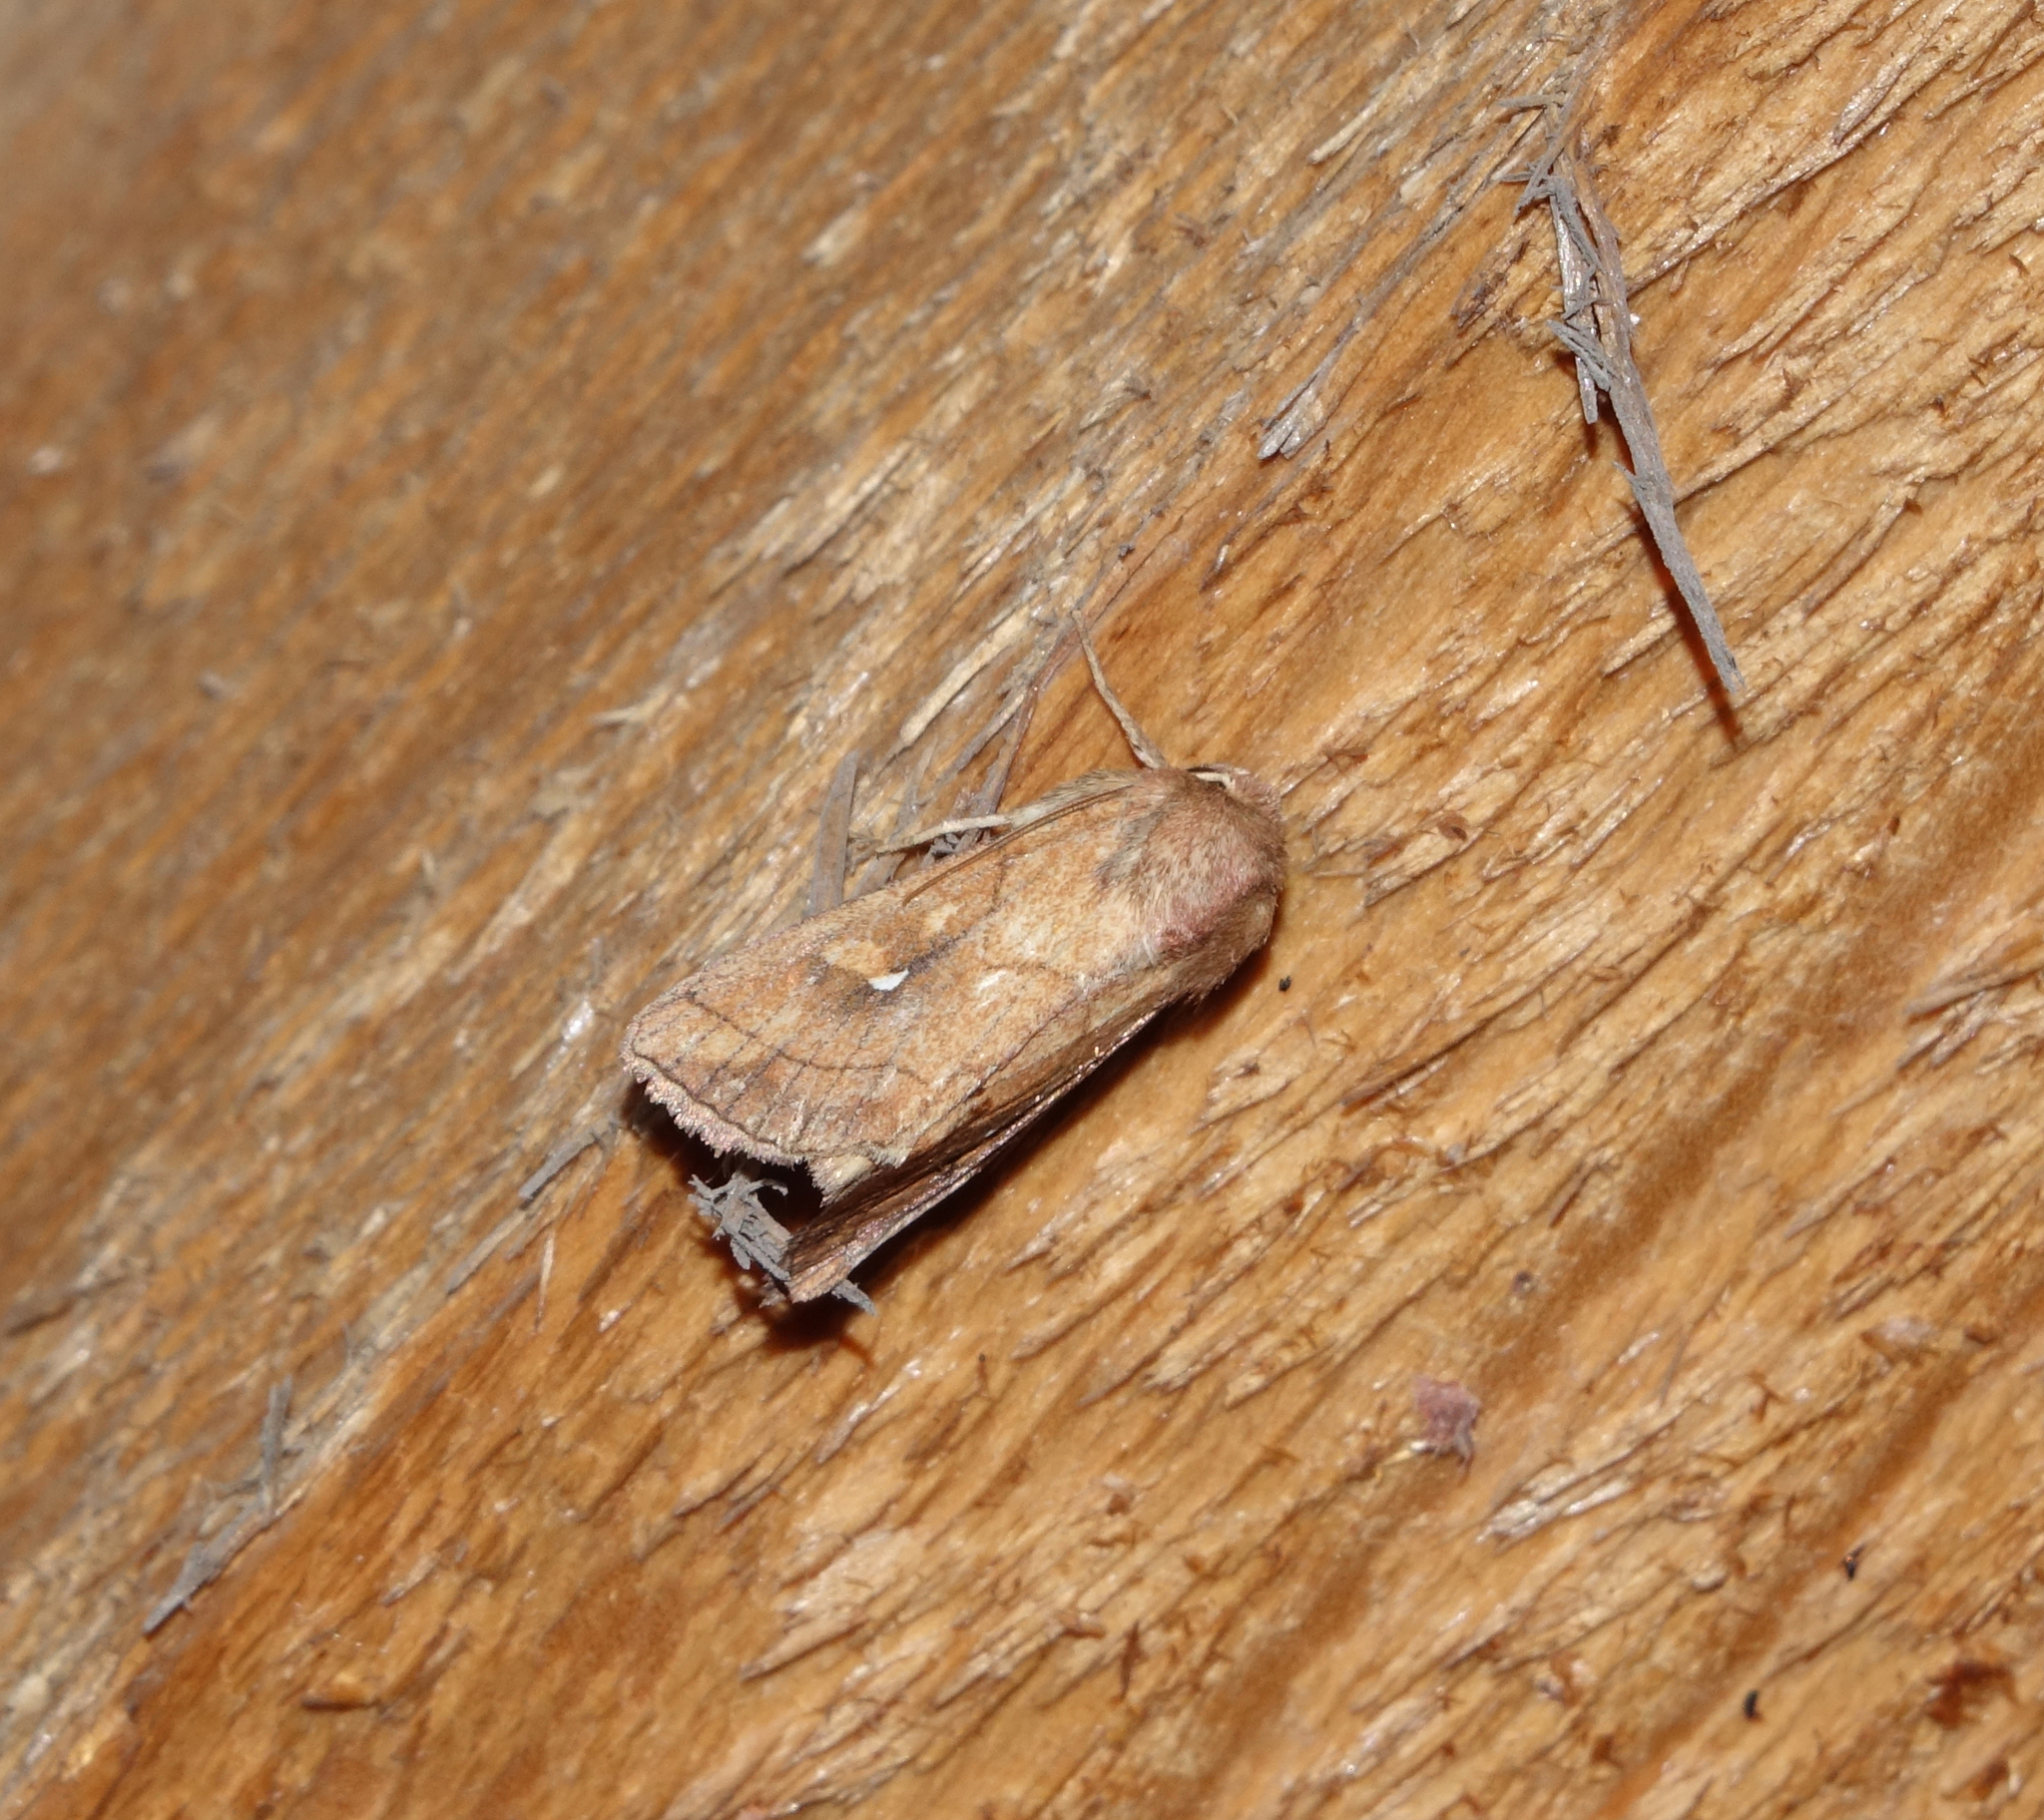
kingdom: Animalia
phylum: Arthropoda
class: Insecta
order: Lepidoptera
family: Noctuidae
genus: Mythimna
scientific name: Mythimna conigera
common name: Brown-line bright-eye
